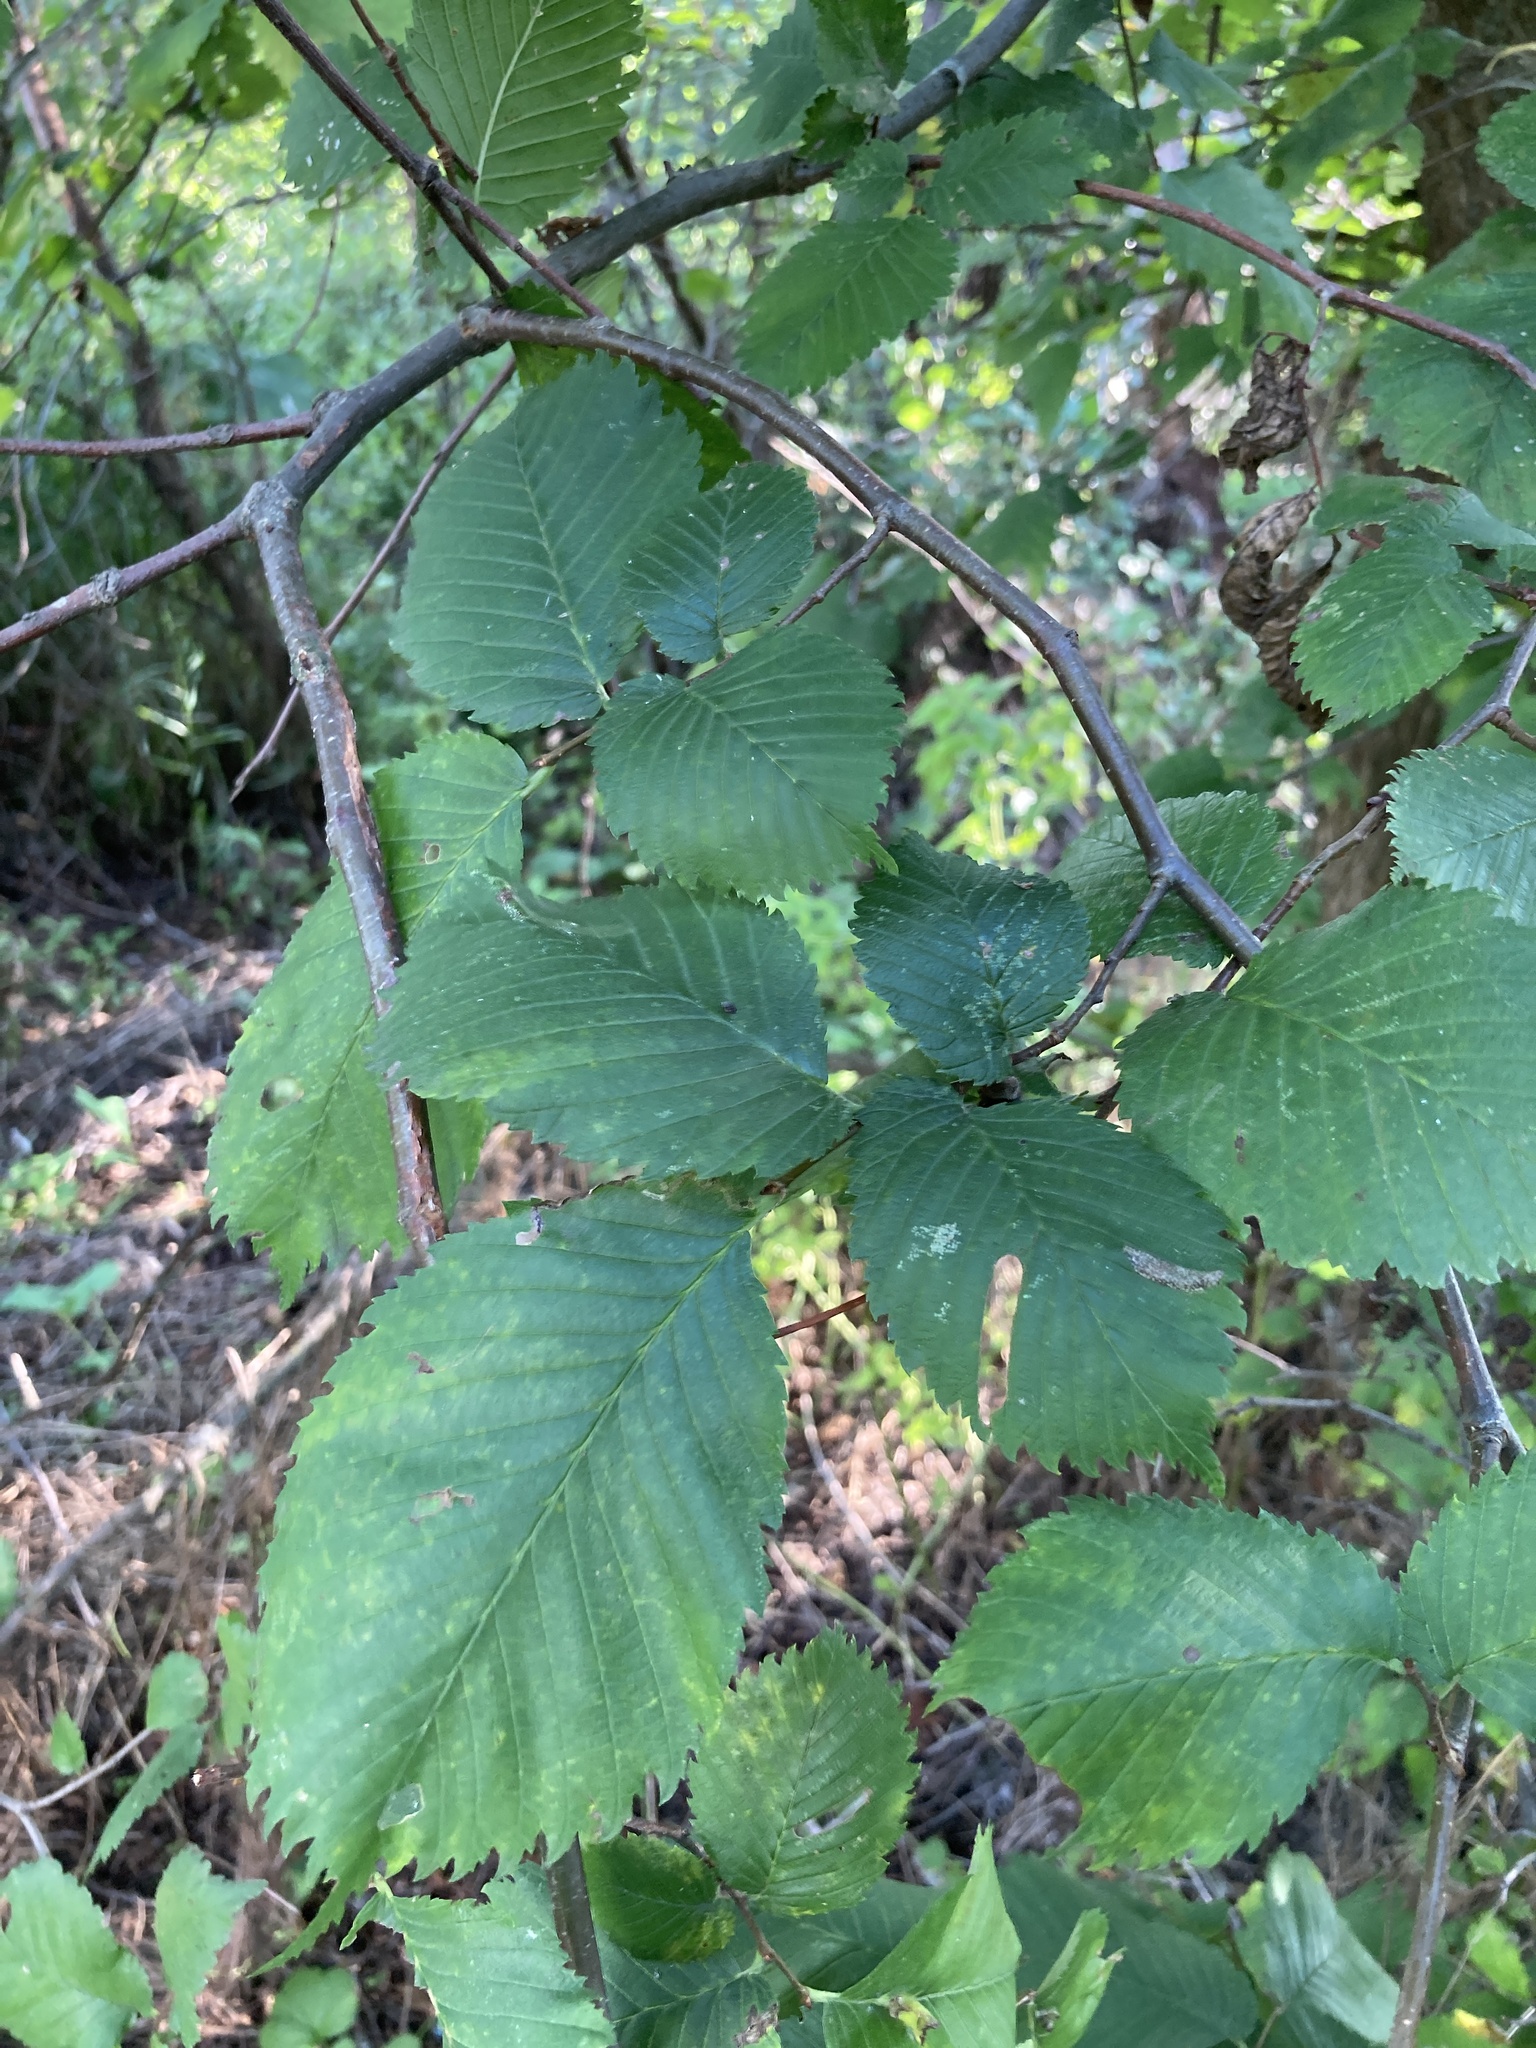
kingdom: Plantae
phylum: Tracheophyta
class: Magnoliopsida
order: Rosales
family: Ulmaceae
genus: Ulmus
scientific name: Ulmus laevis
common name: European white-elm
